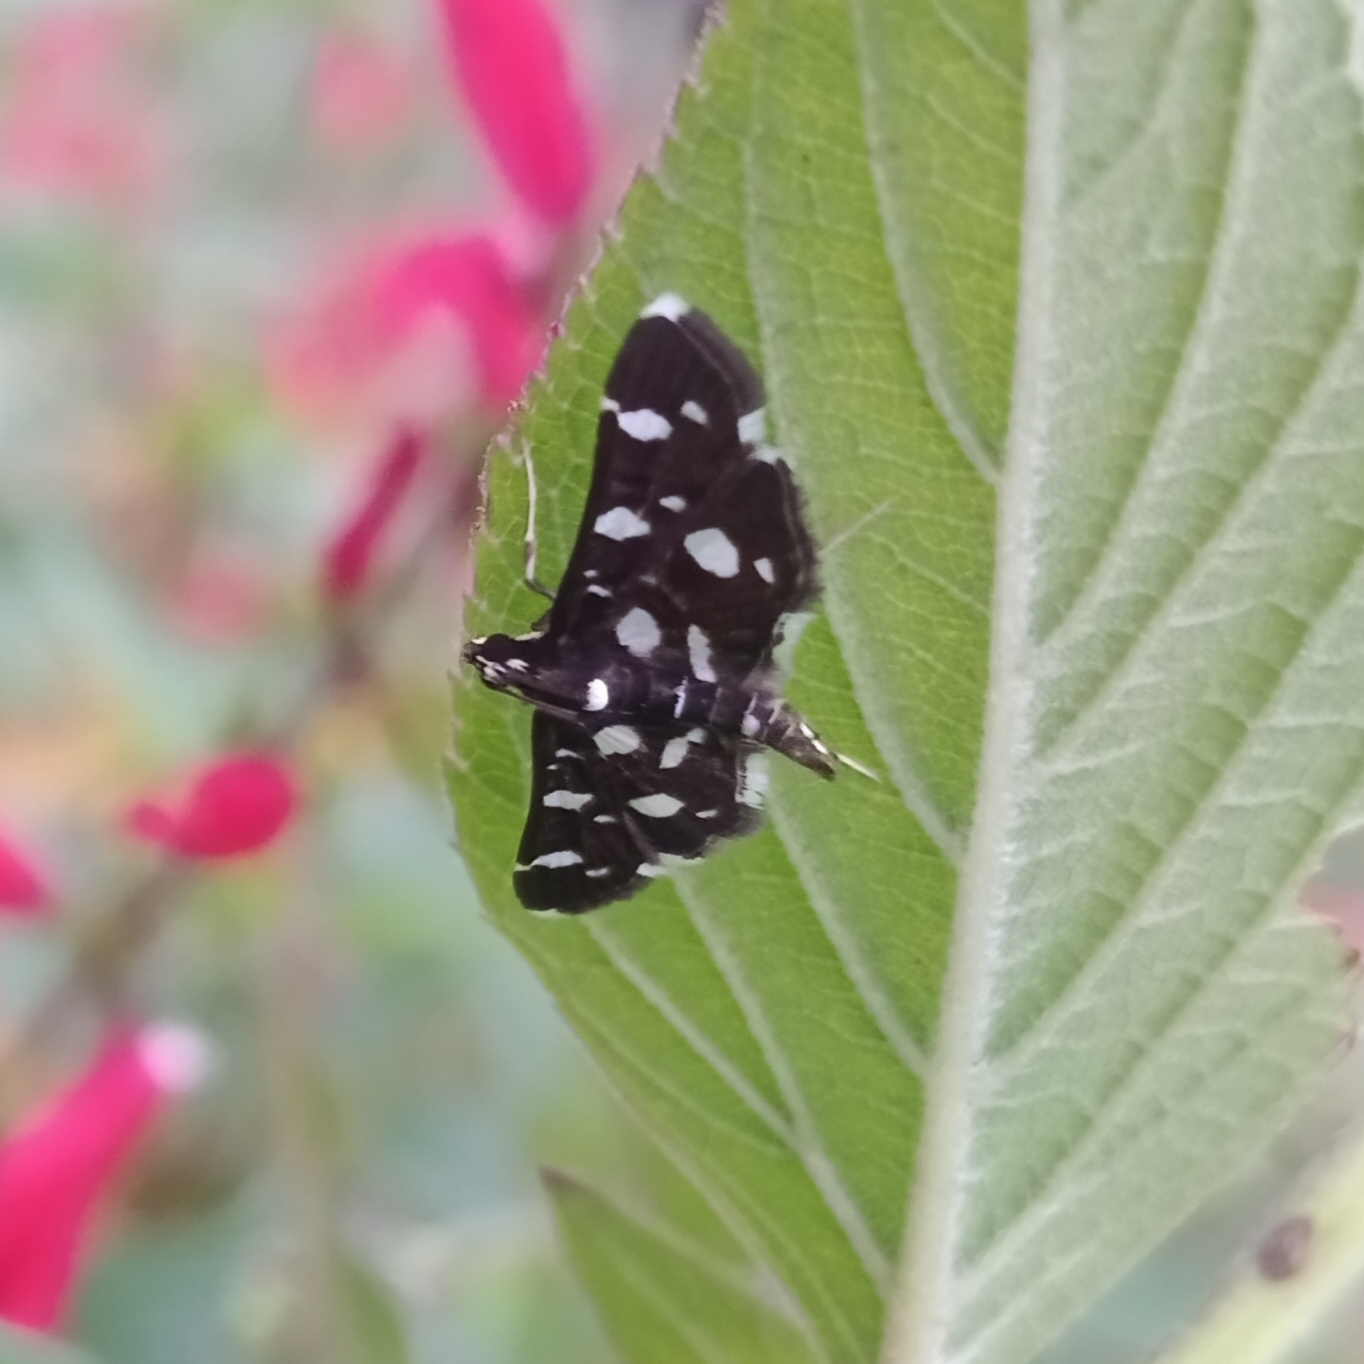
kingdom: Animalia
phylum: Arthropoda
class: Insecta
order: Lepidoptera
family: Crambidae
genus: Bocchoris
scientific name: Bocchoris inspersalis
